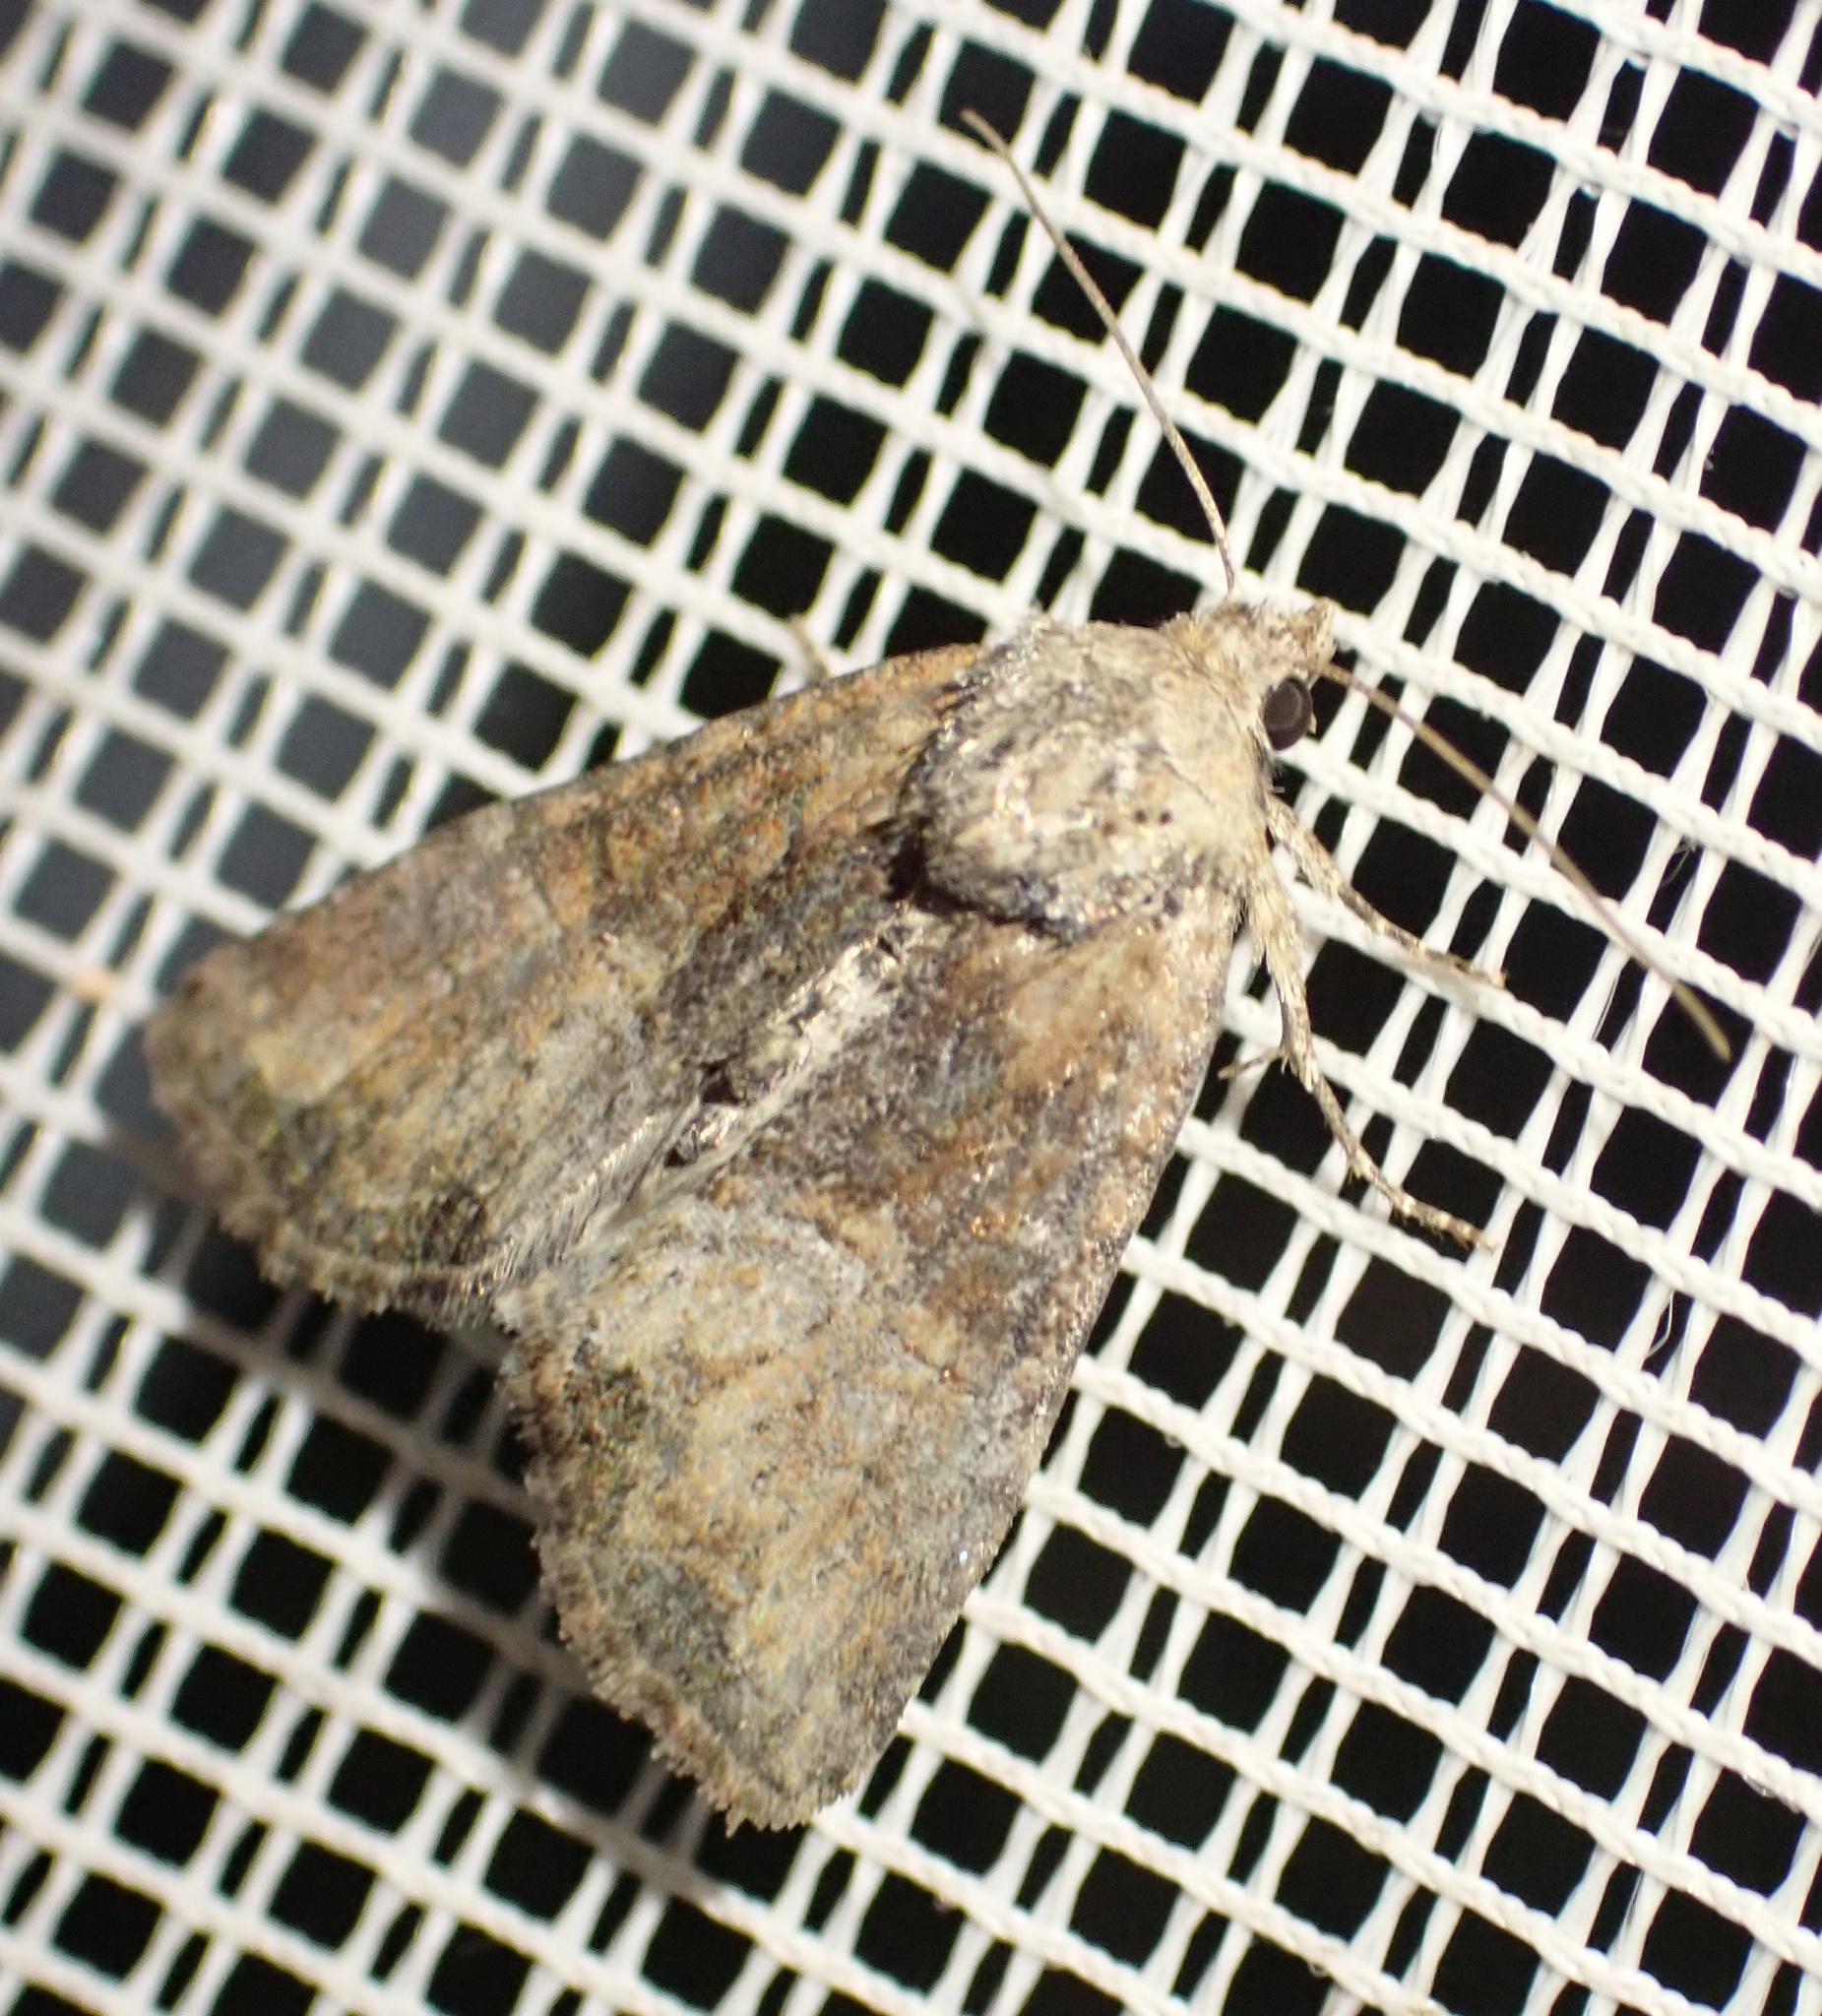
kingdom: Animalia
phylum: Arthropoda
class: Insecta
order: Lepidoptera
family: Noctuidae
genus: Mesoligia
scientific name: Mesoligia furuncula
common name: Cloaked minor
